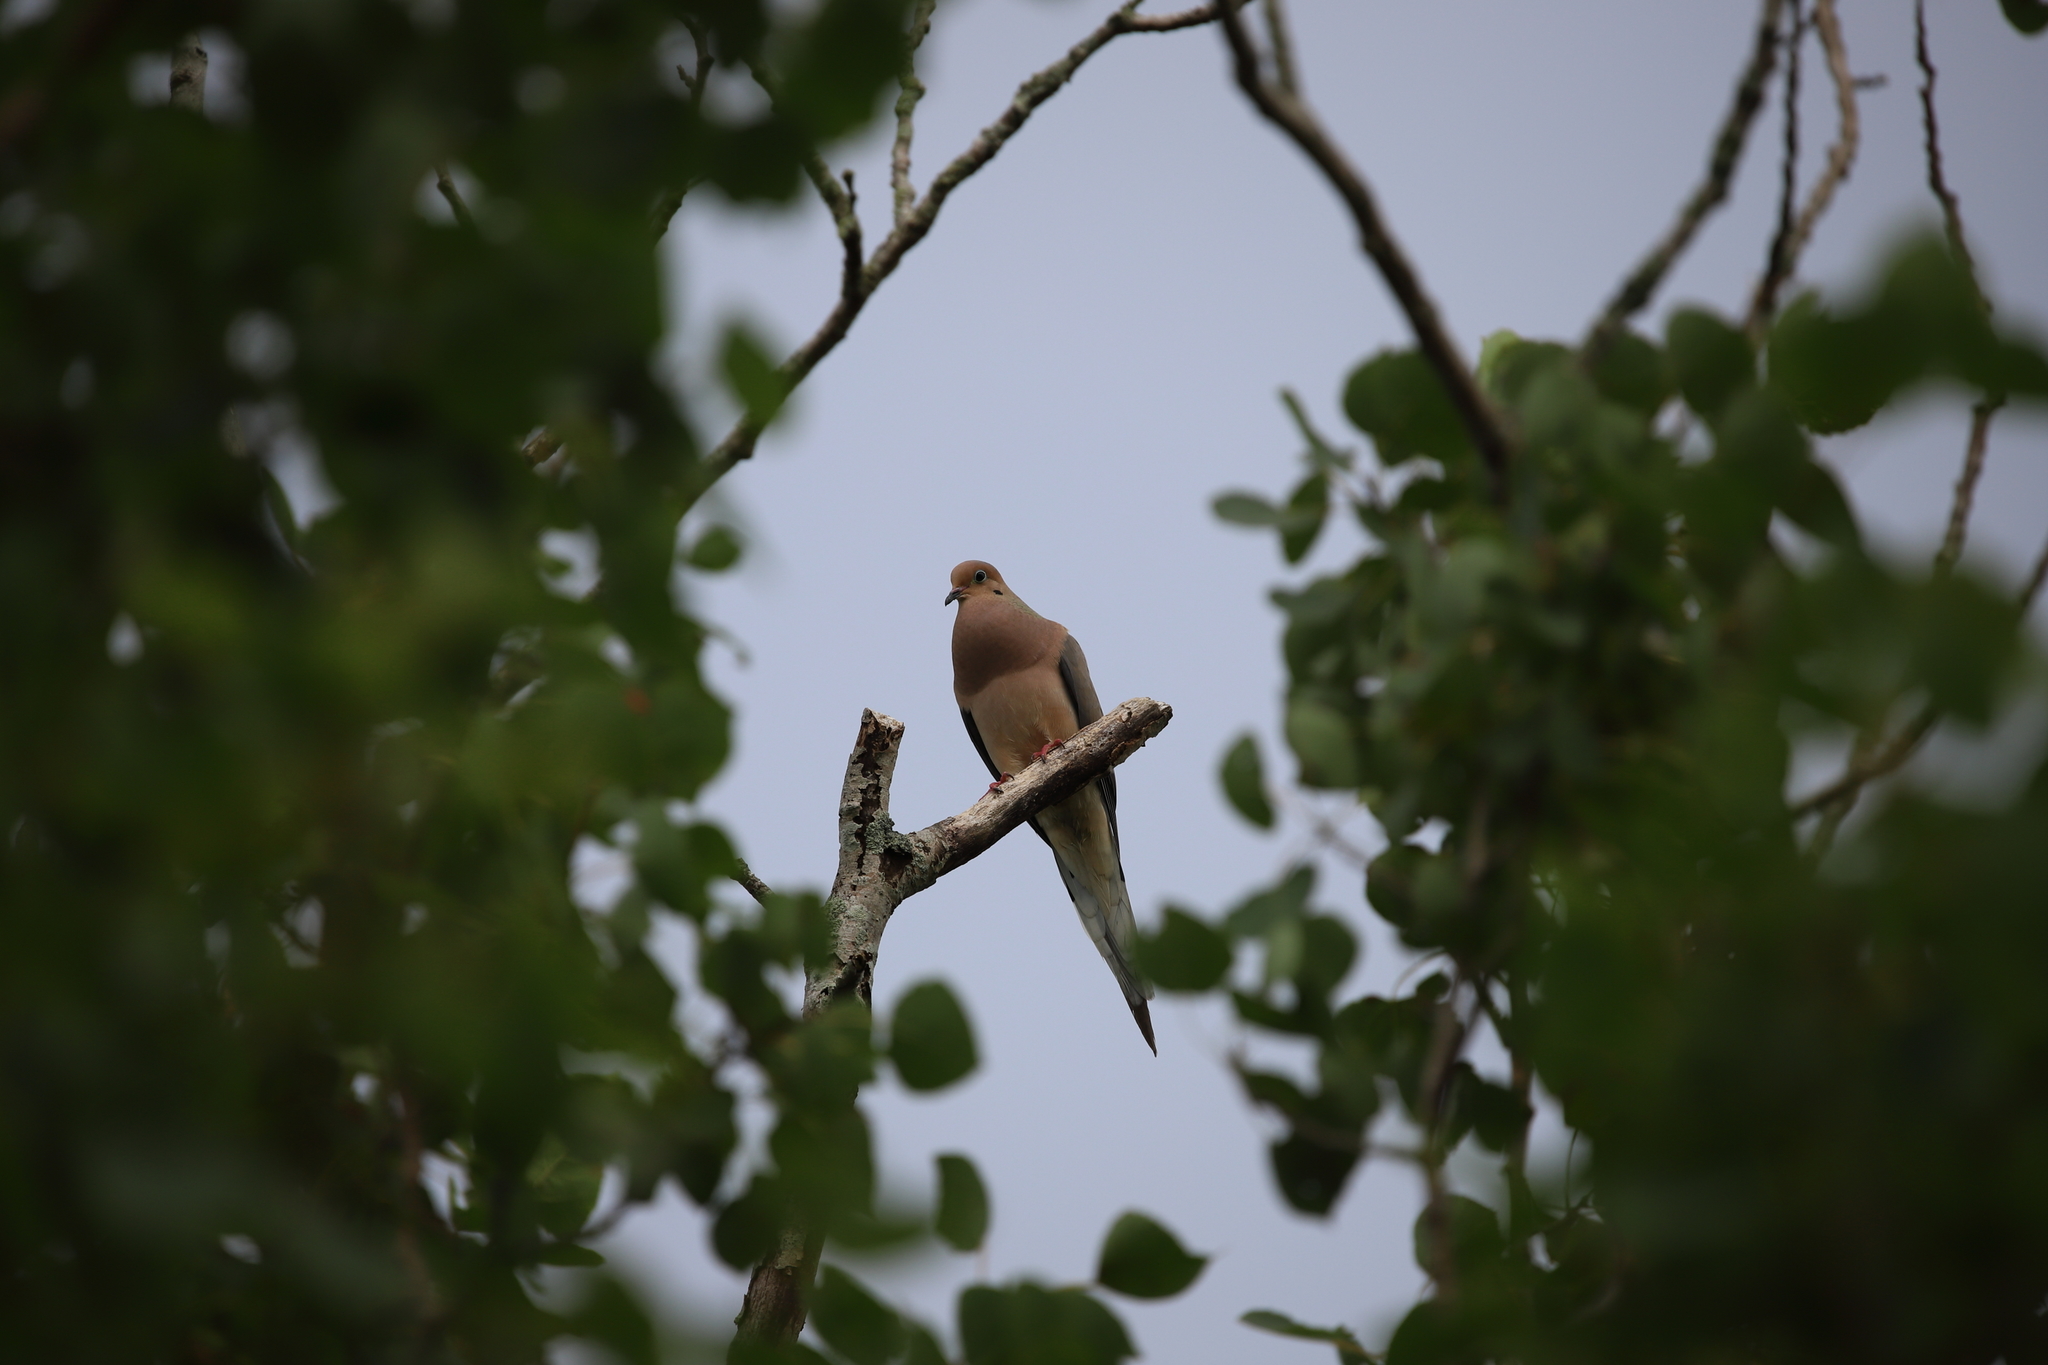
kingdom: Animalia
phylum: Chordata
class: Aves
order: Columbiformes
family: Columbidae
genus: Zenaida
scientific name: Zenaida macroura
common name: Mourning dove
